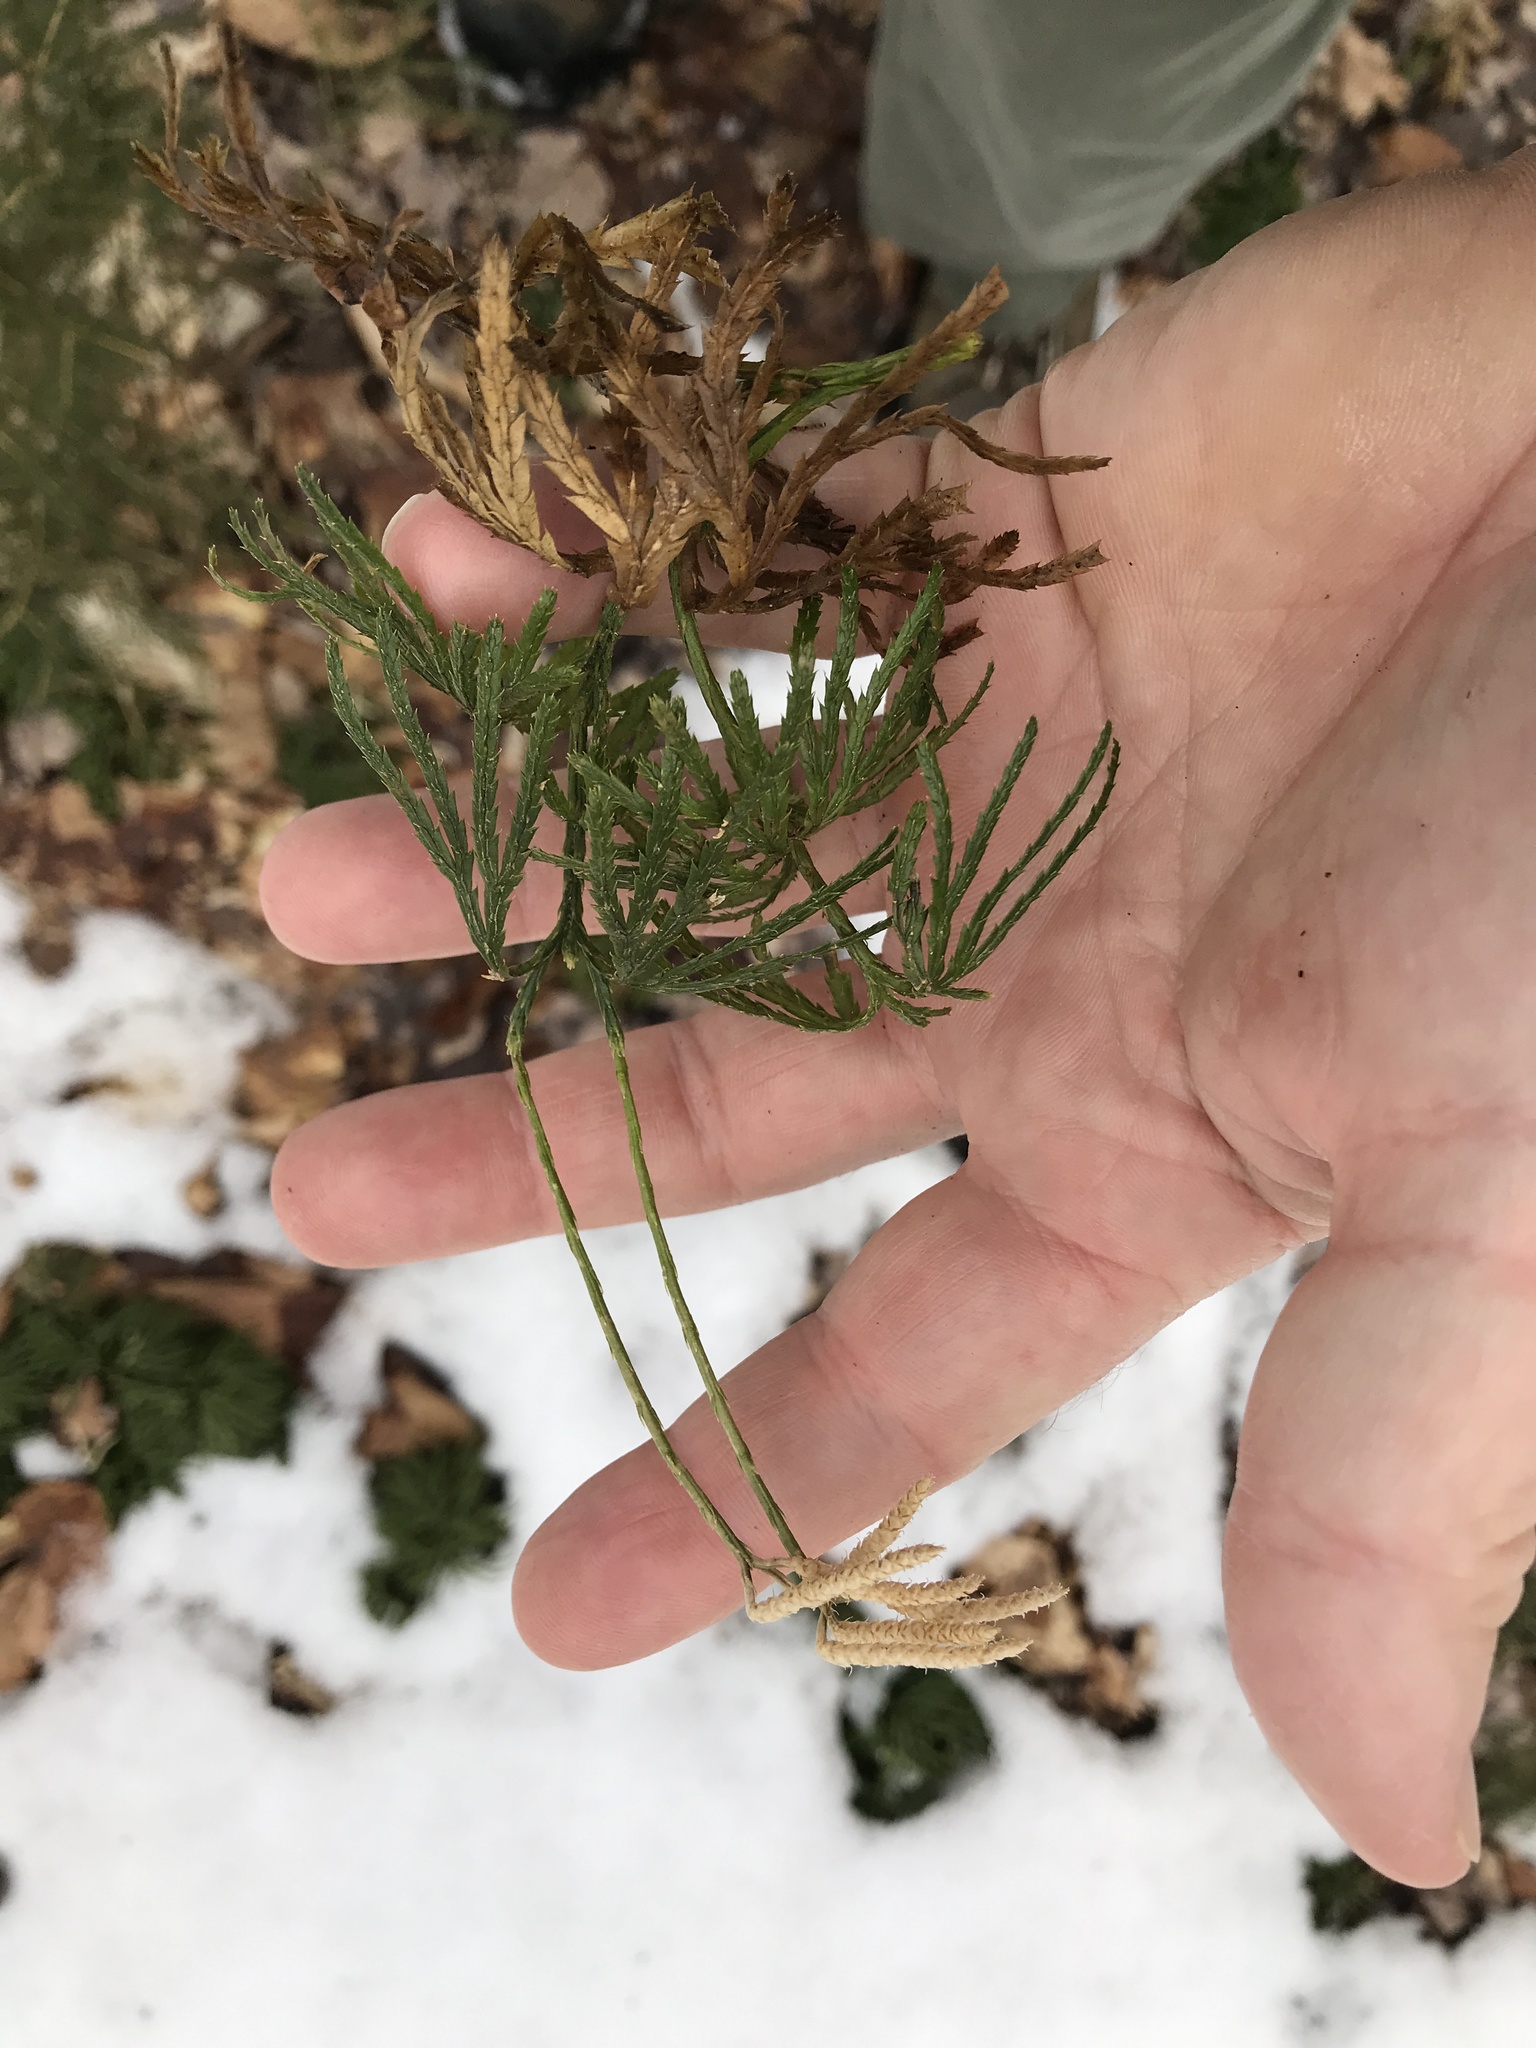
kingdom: Plantae
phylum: Tracheophyta
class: Lycopodiopsida
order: Lycopodiales
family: Lycopodiaceae
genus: Diphasiastrum
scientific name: Diphasiastrum digitatum
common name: Southern running-pine
